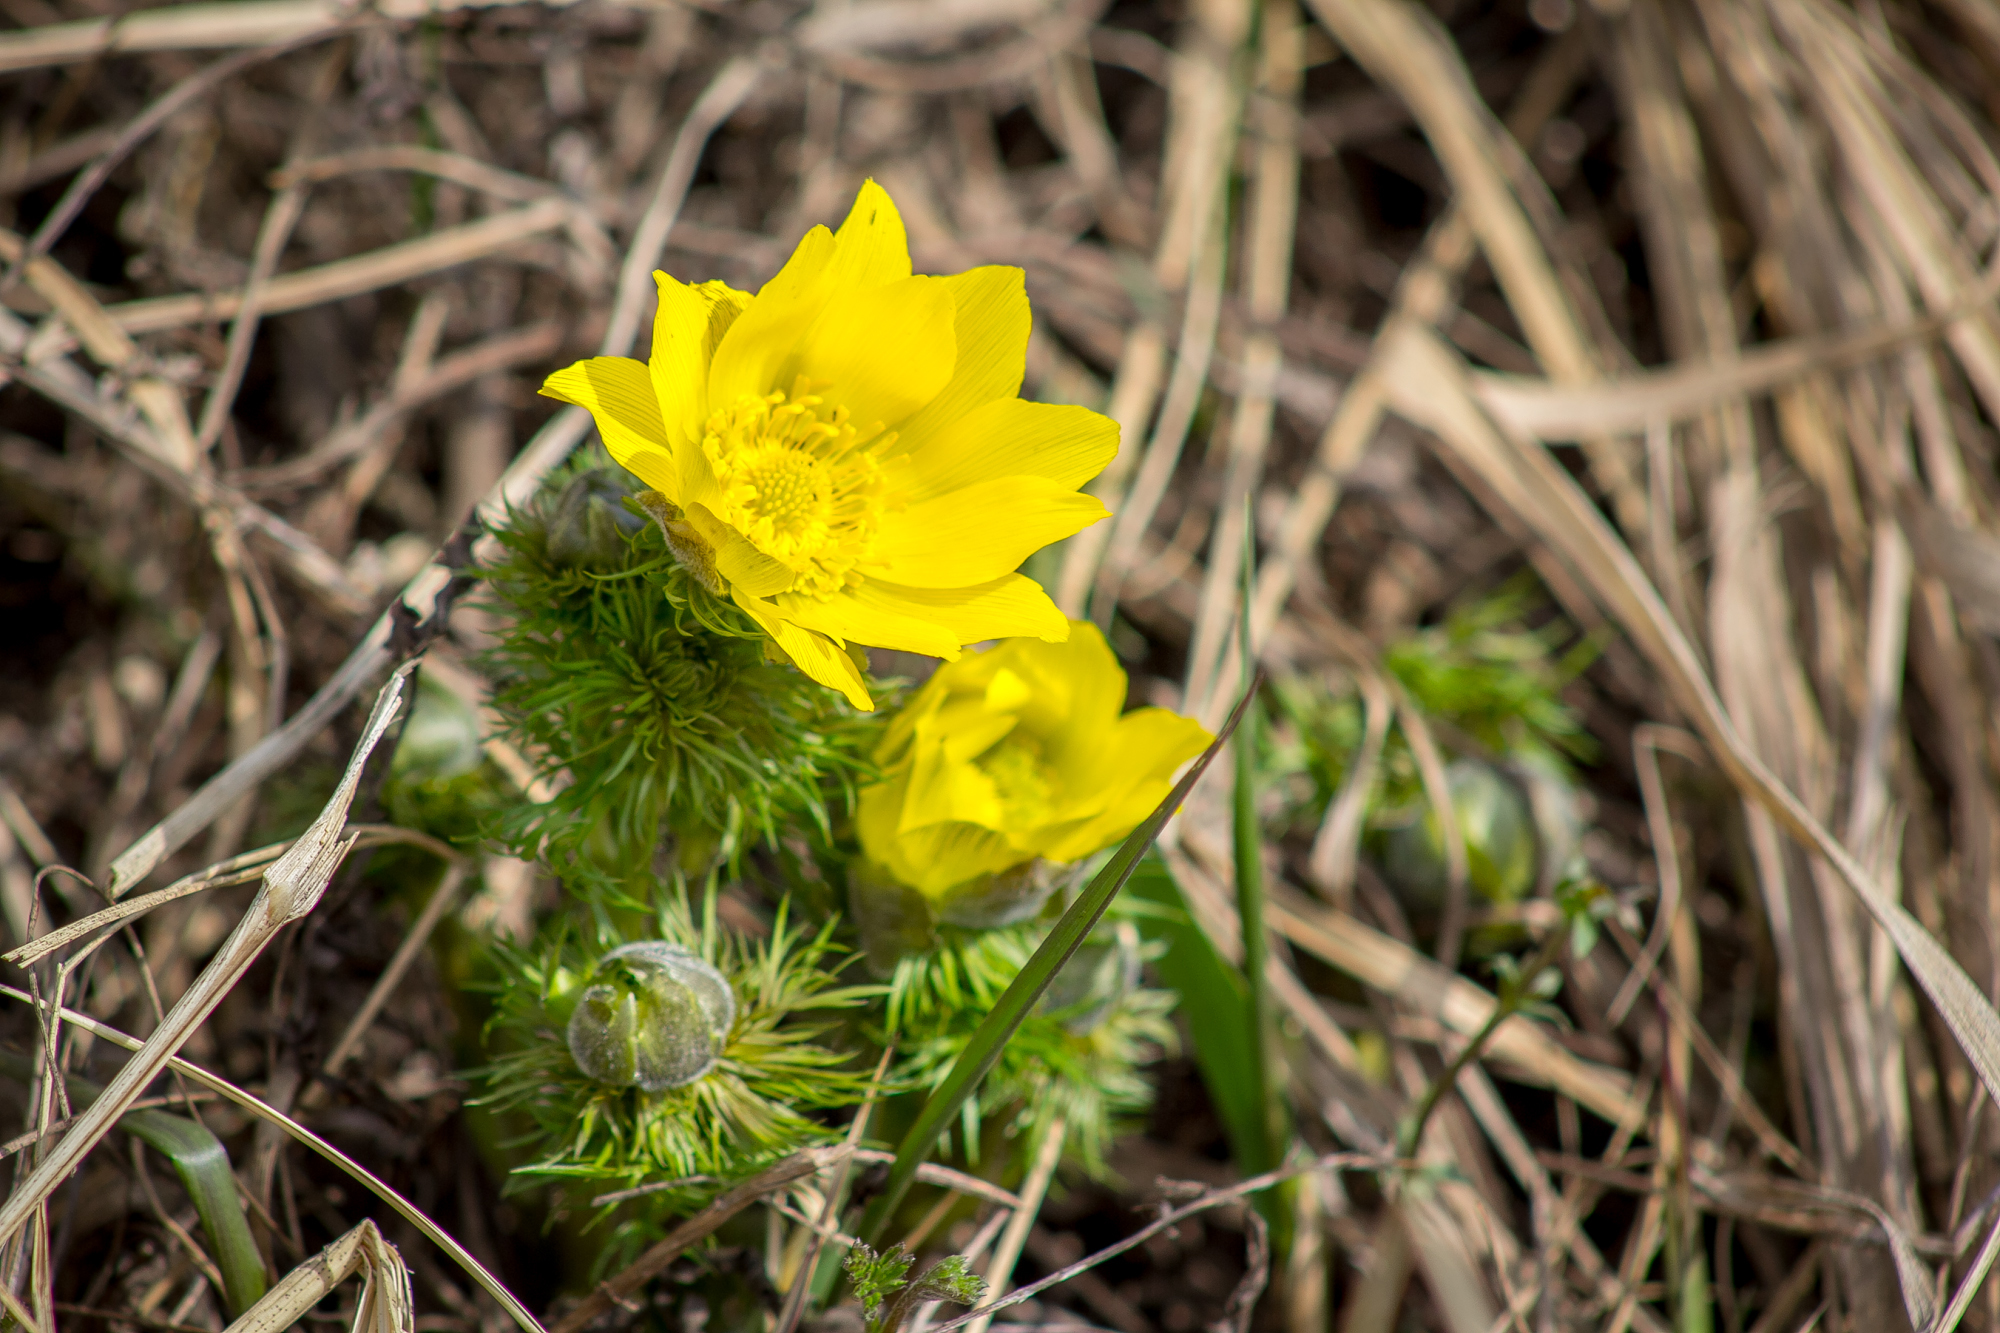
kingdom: Plantae
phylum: Tracheophyta
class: Magnoliopsida
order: Ranunculales
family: Ranunculaceae
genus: Adonis
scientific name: Adonis vernalis
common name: Yellow pheasants-eye
